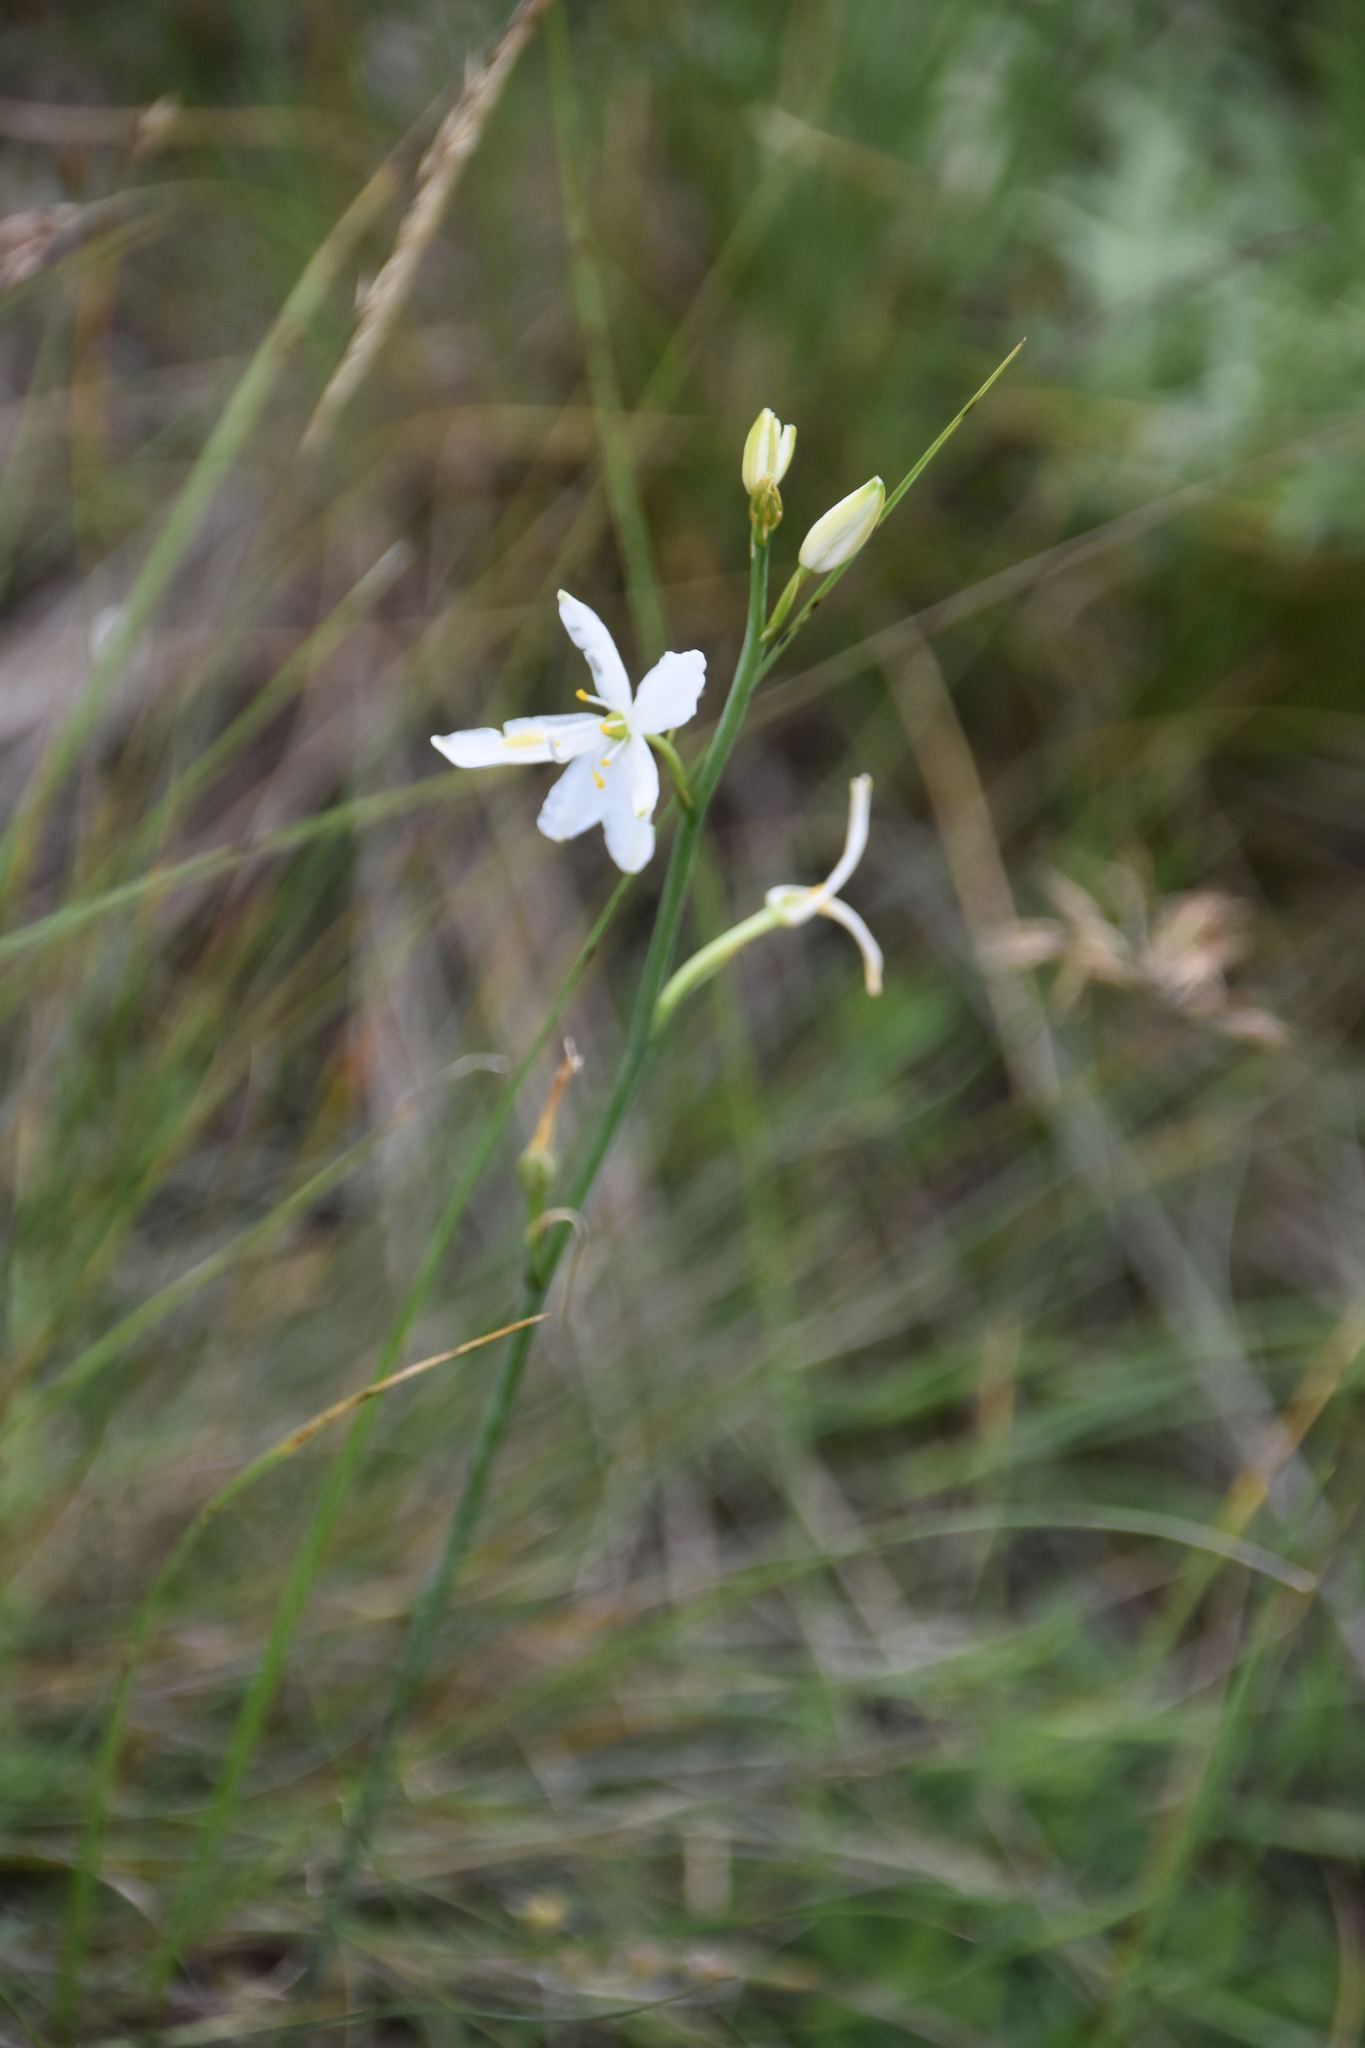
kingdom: Plantae
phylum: Tracheophyta
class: Liliopsida
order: Asparagales
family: Asparagaceae
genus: Anthericum
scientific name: Anthericum liliago
